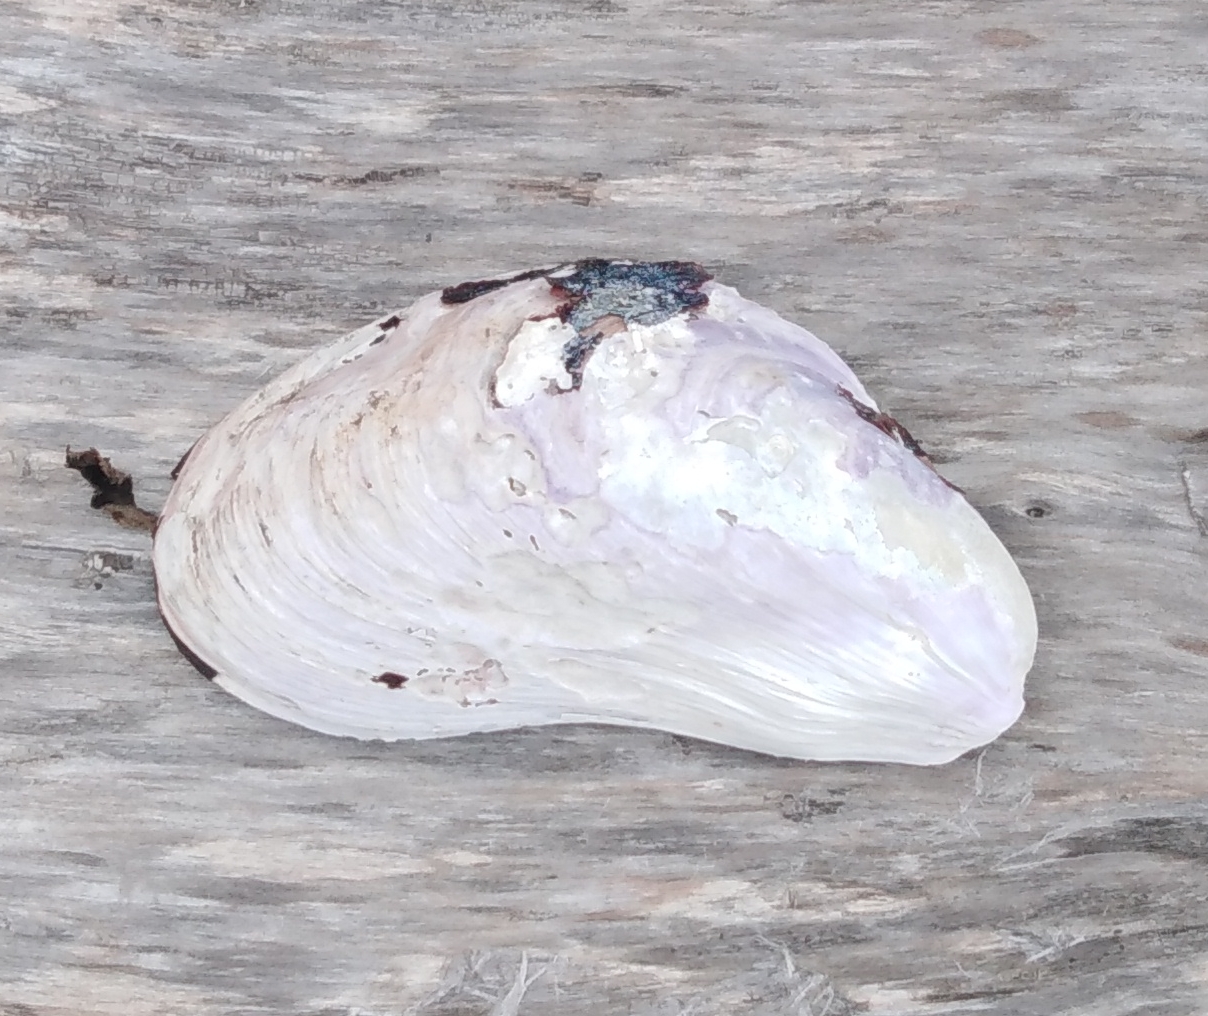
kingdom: Animalia
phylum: Mollusca
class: Bivalvia
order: Mytilida
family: Mytilidae
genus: Modiolus
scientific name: Modiolus modiolus
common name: Horse-mussel
